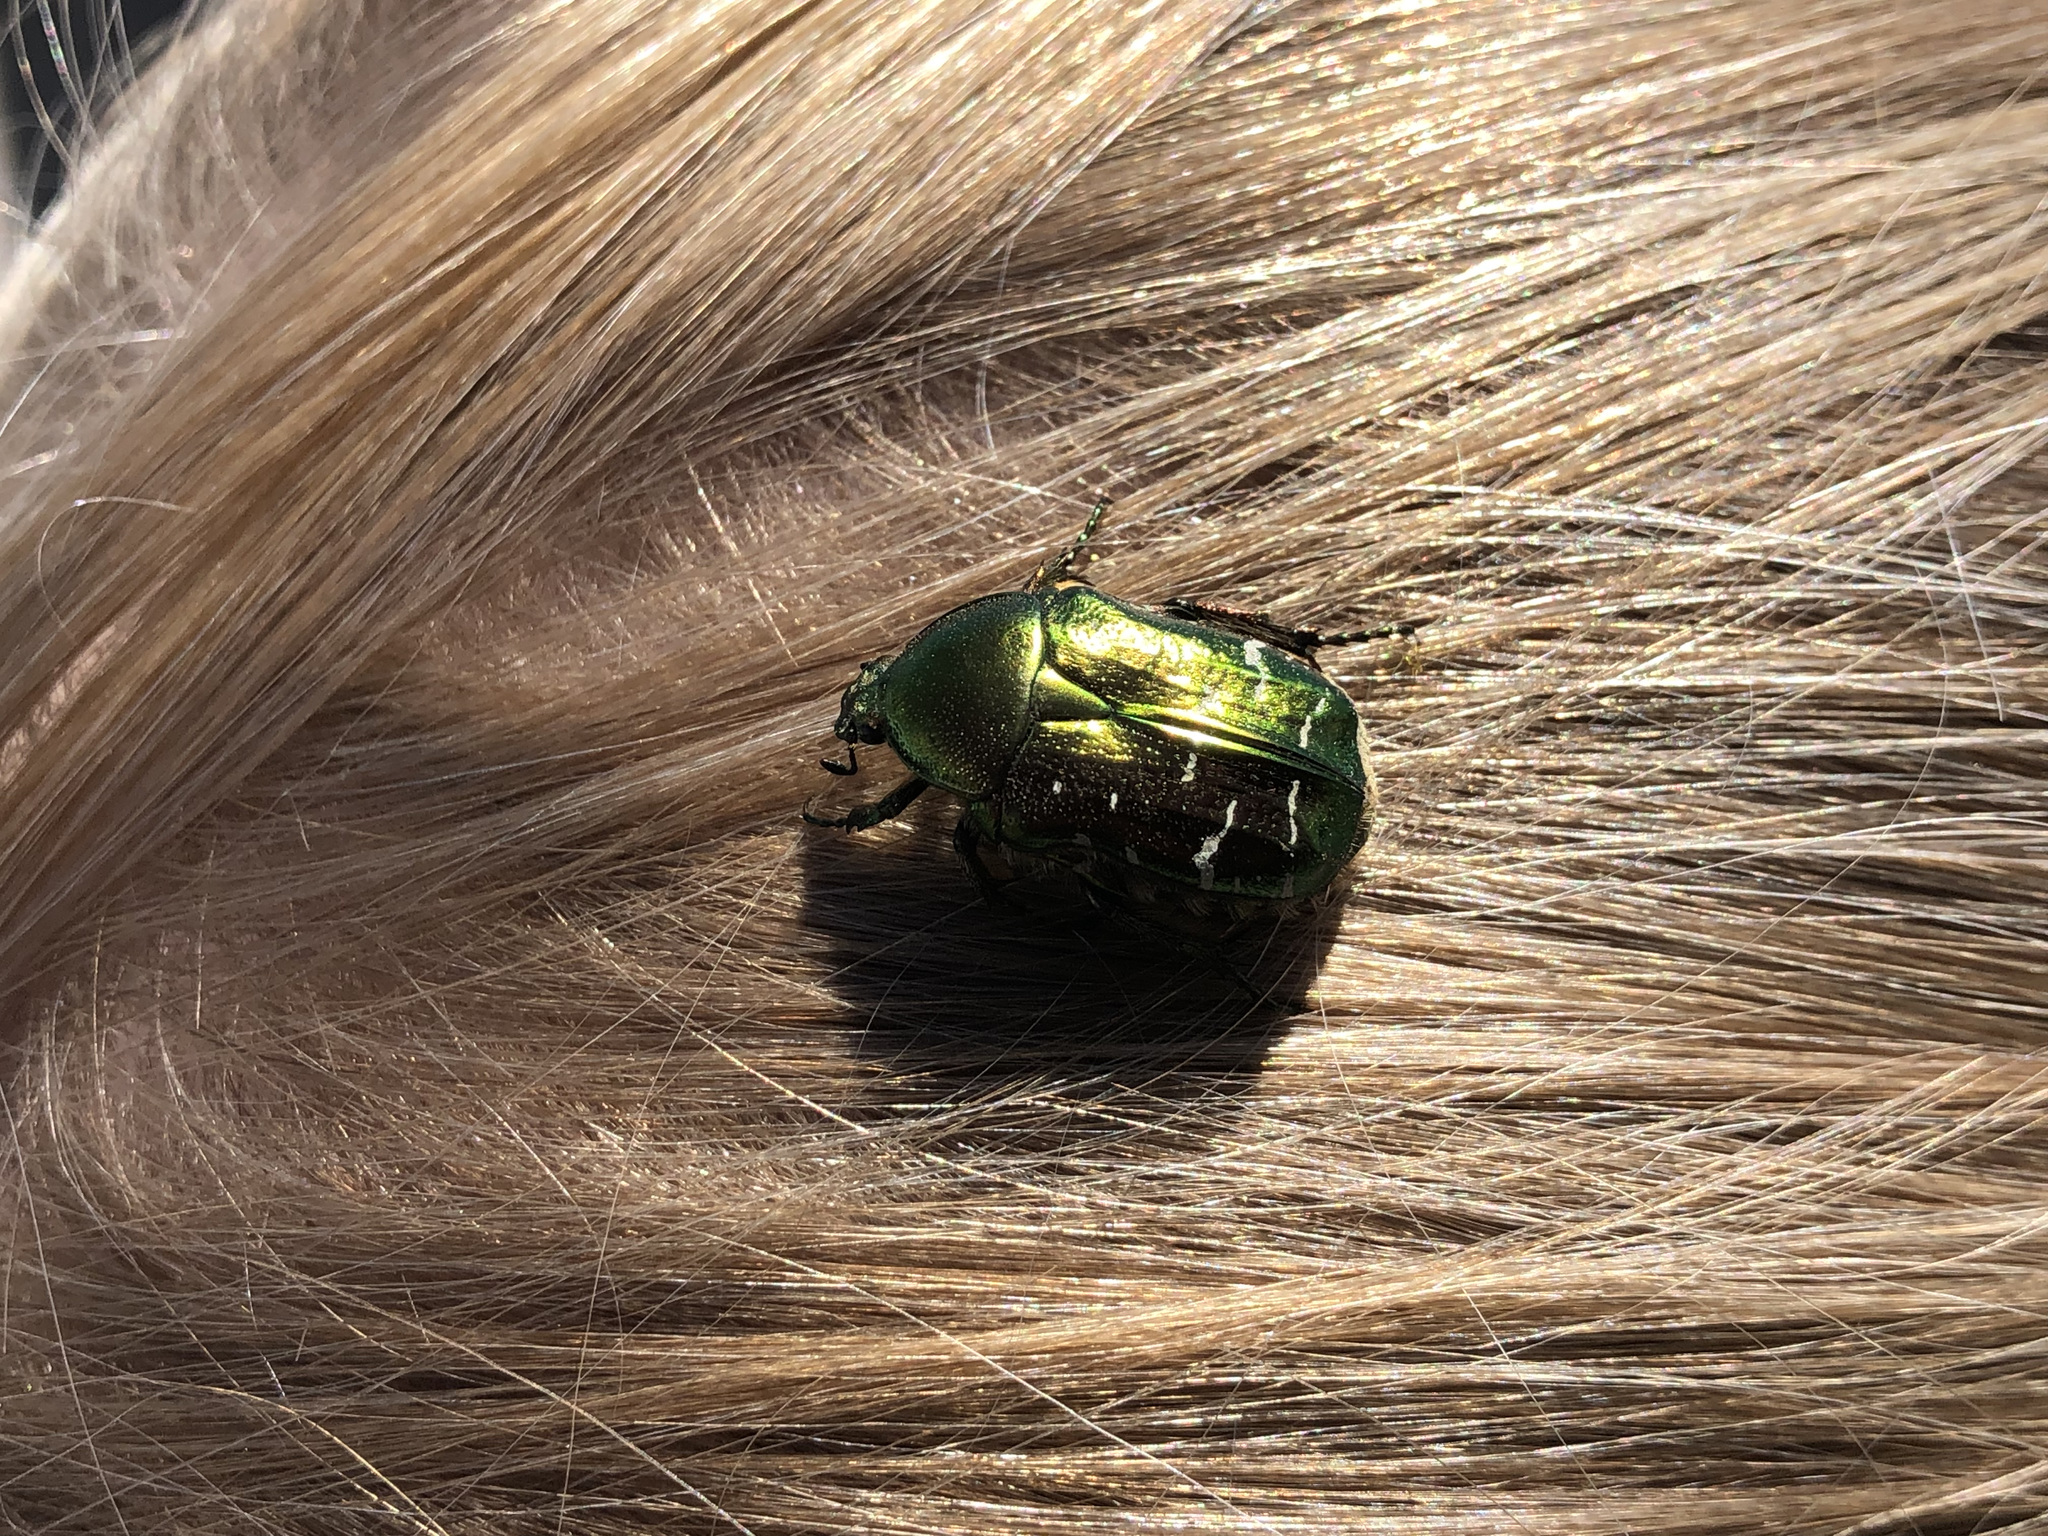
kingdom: Animalia
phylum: Arthropoda
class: Insecta
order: Coleoptera
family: Scarabaeidae
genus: Cetonia
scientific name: Cetonia aurata
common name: Rose chafer
